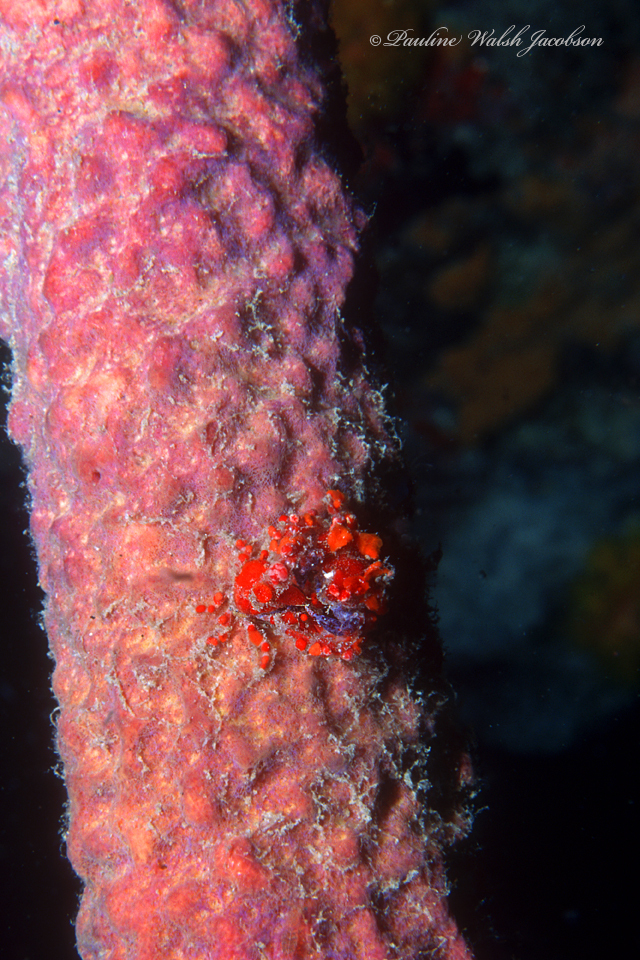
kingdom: Animalia
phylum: Arthropoda
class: Malacostraca
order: Decapoda
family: Epialtidae
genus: Pelia
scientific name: Pelia mutica
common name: Cryptic teardrop crab
